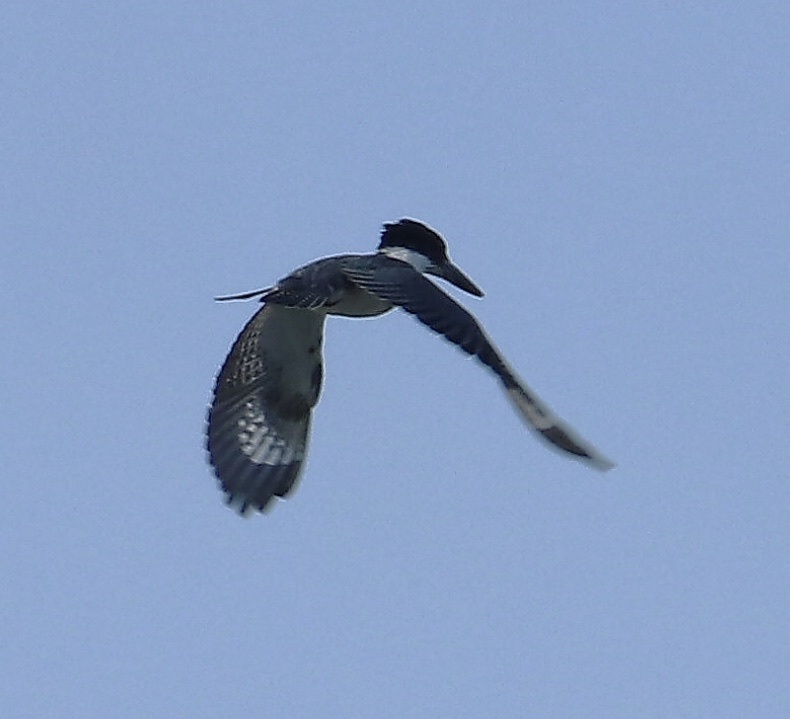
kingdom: Animalia
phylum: Chordata
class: Aves
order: Coraciiformes
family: Alcedinidae
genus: Megaceryle
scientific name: Megaceryle alcyon
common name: Belted kingfisher
